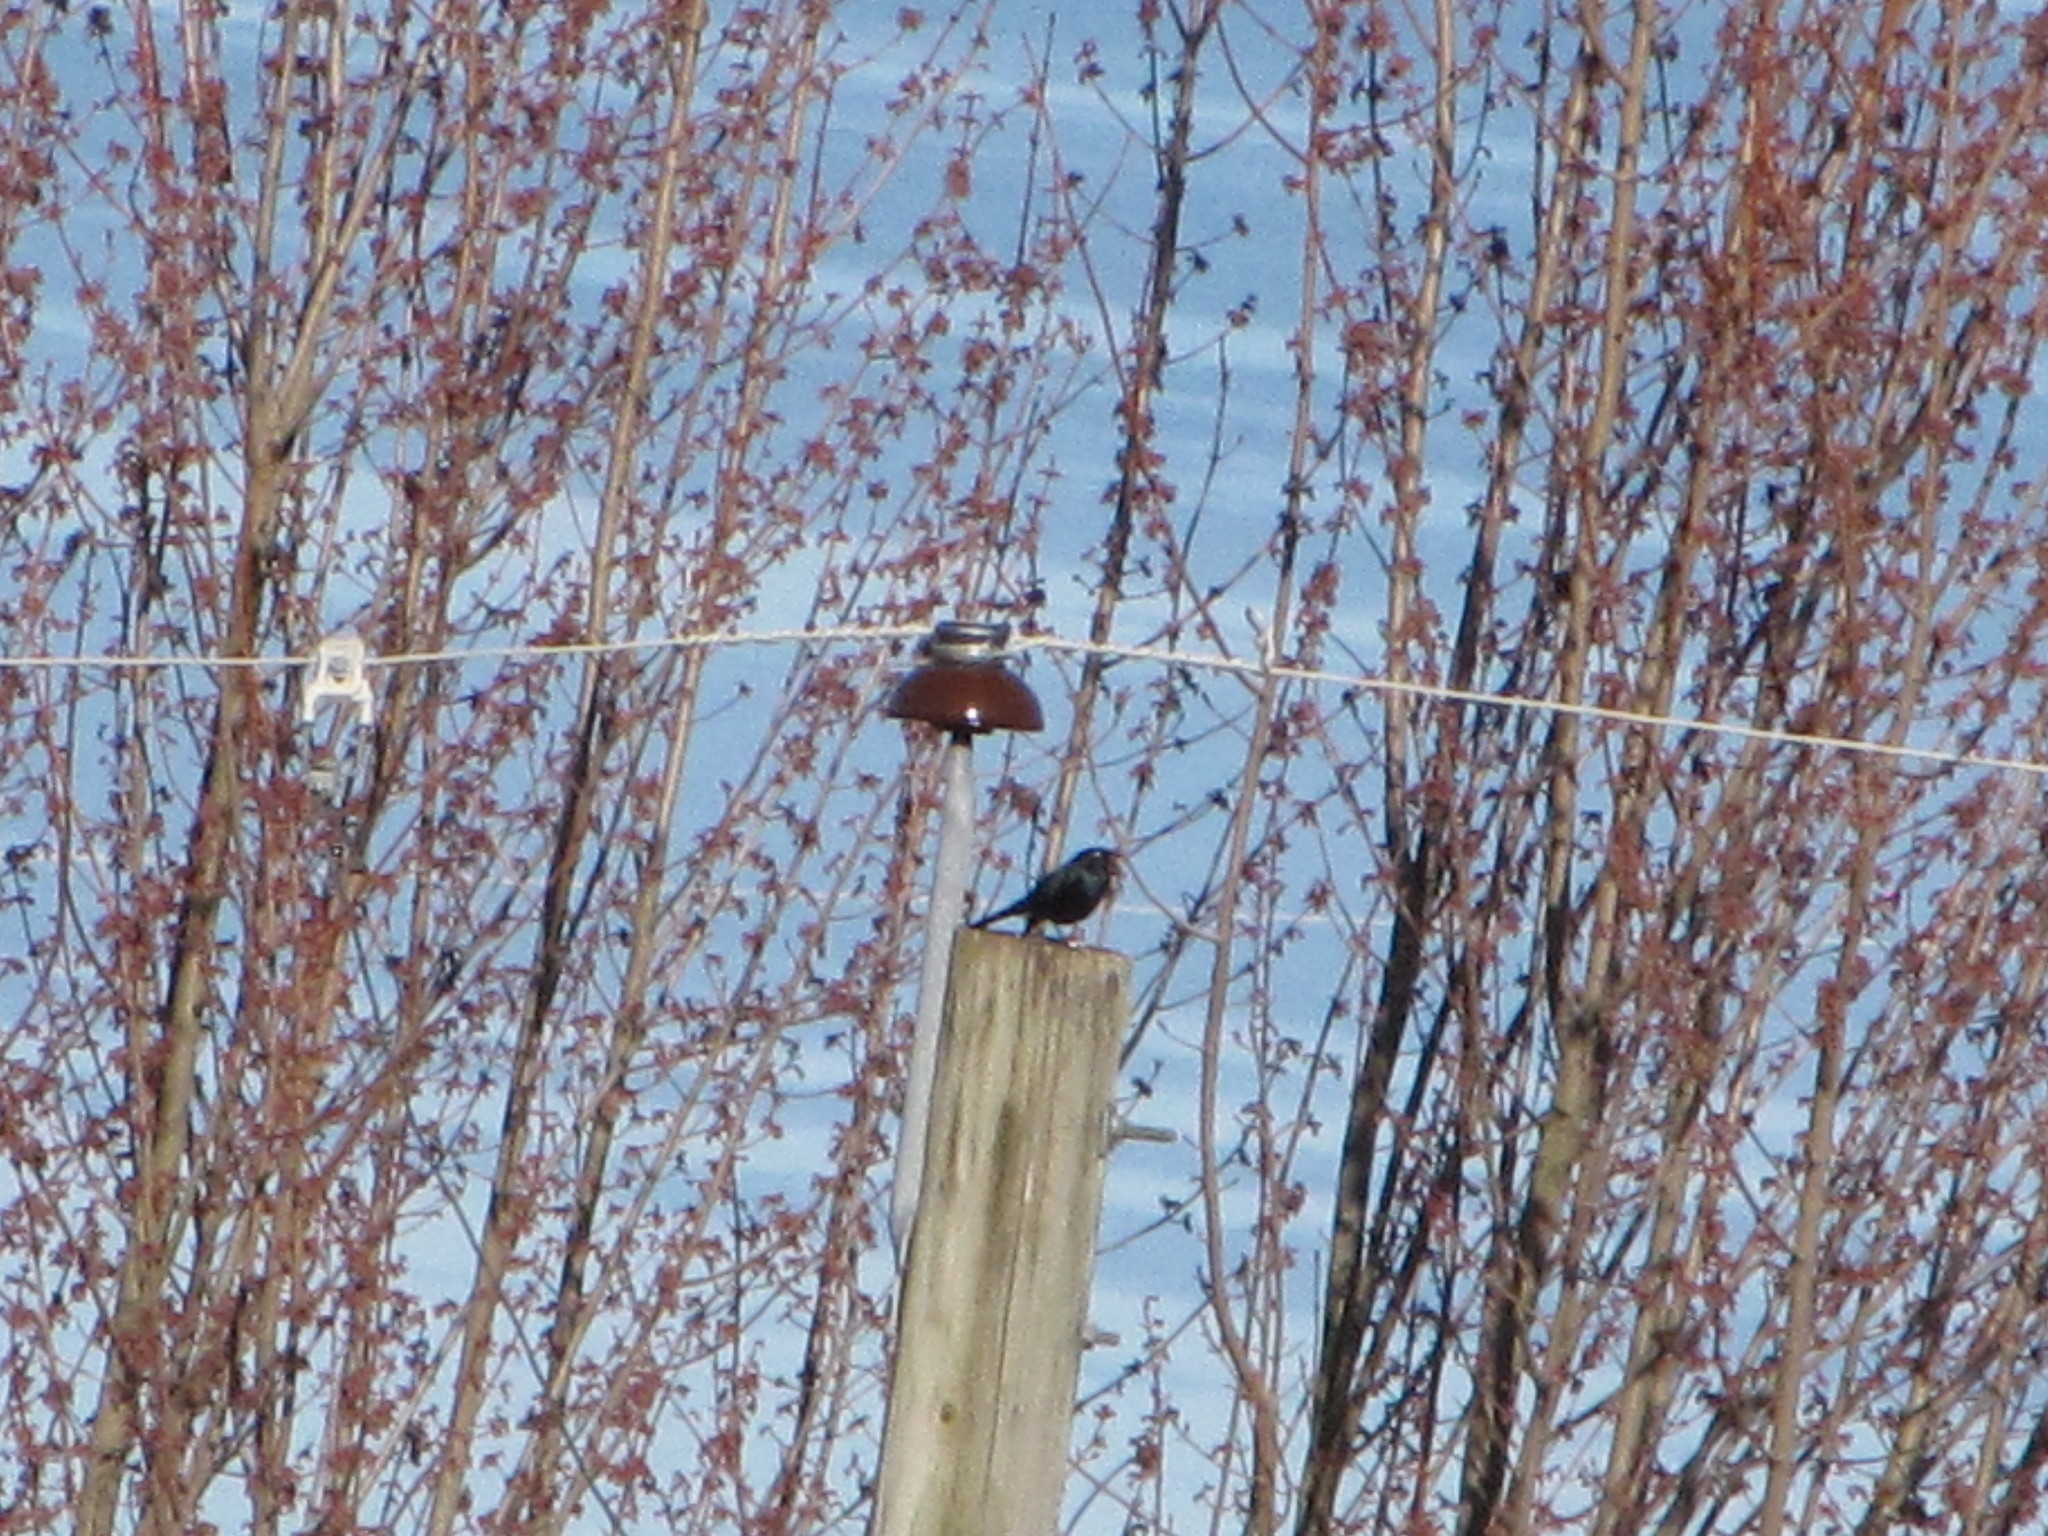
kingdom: Animalia
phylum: Chordata
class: Aves
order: Passeriformes
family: Icteridae
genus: Euphagus
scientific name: Euphagus cyanocephalus
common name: Brewer's blackbird
